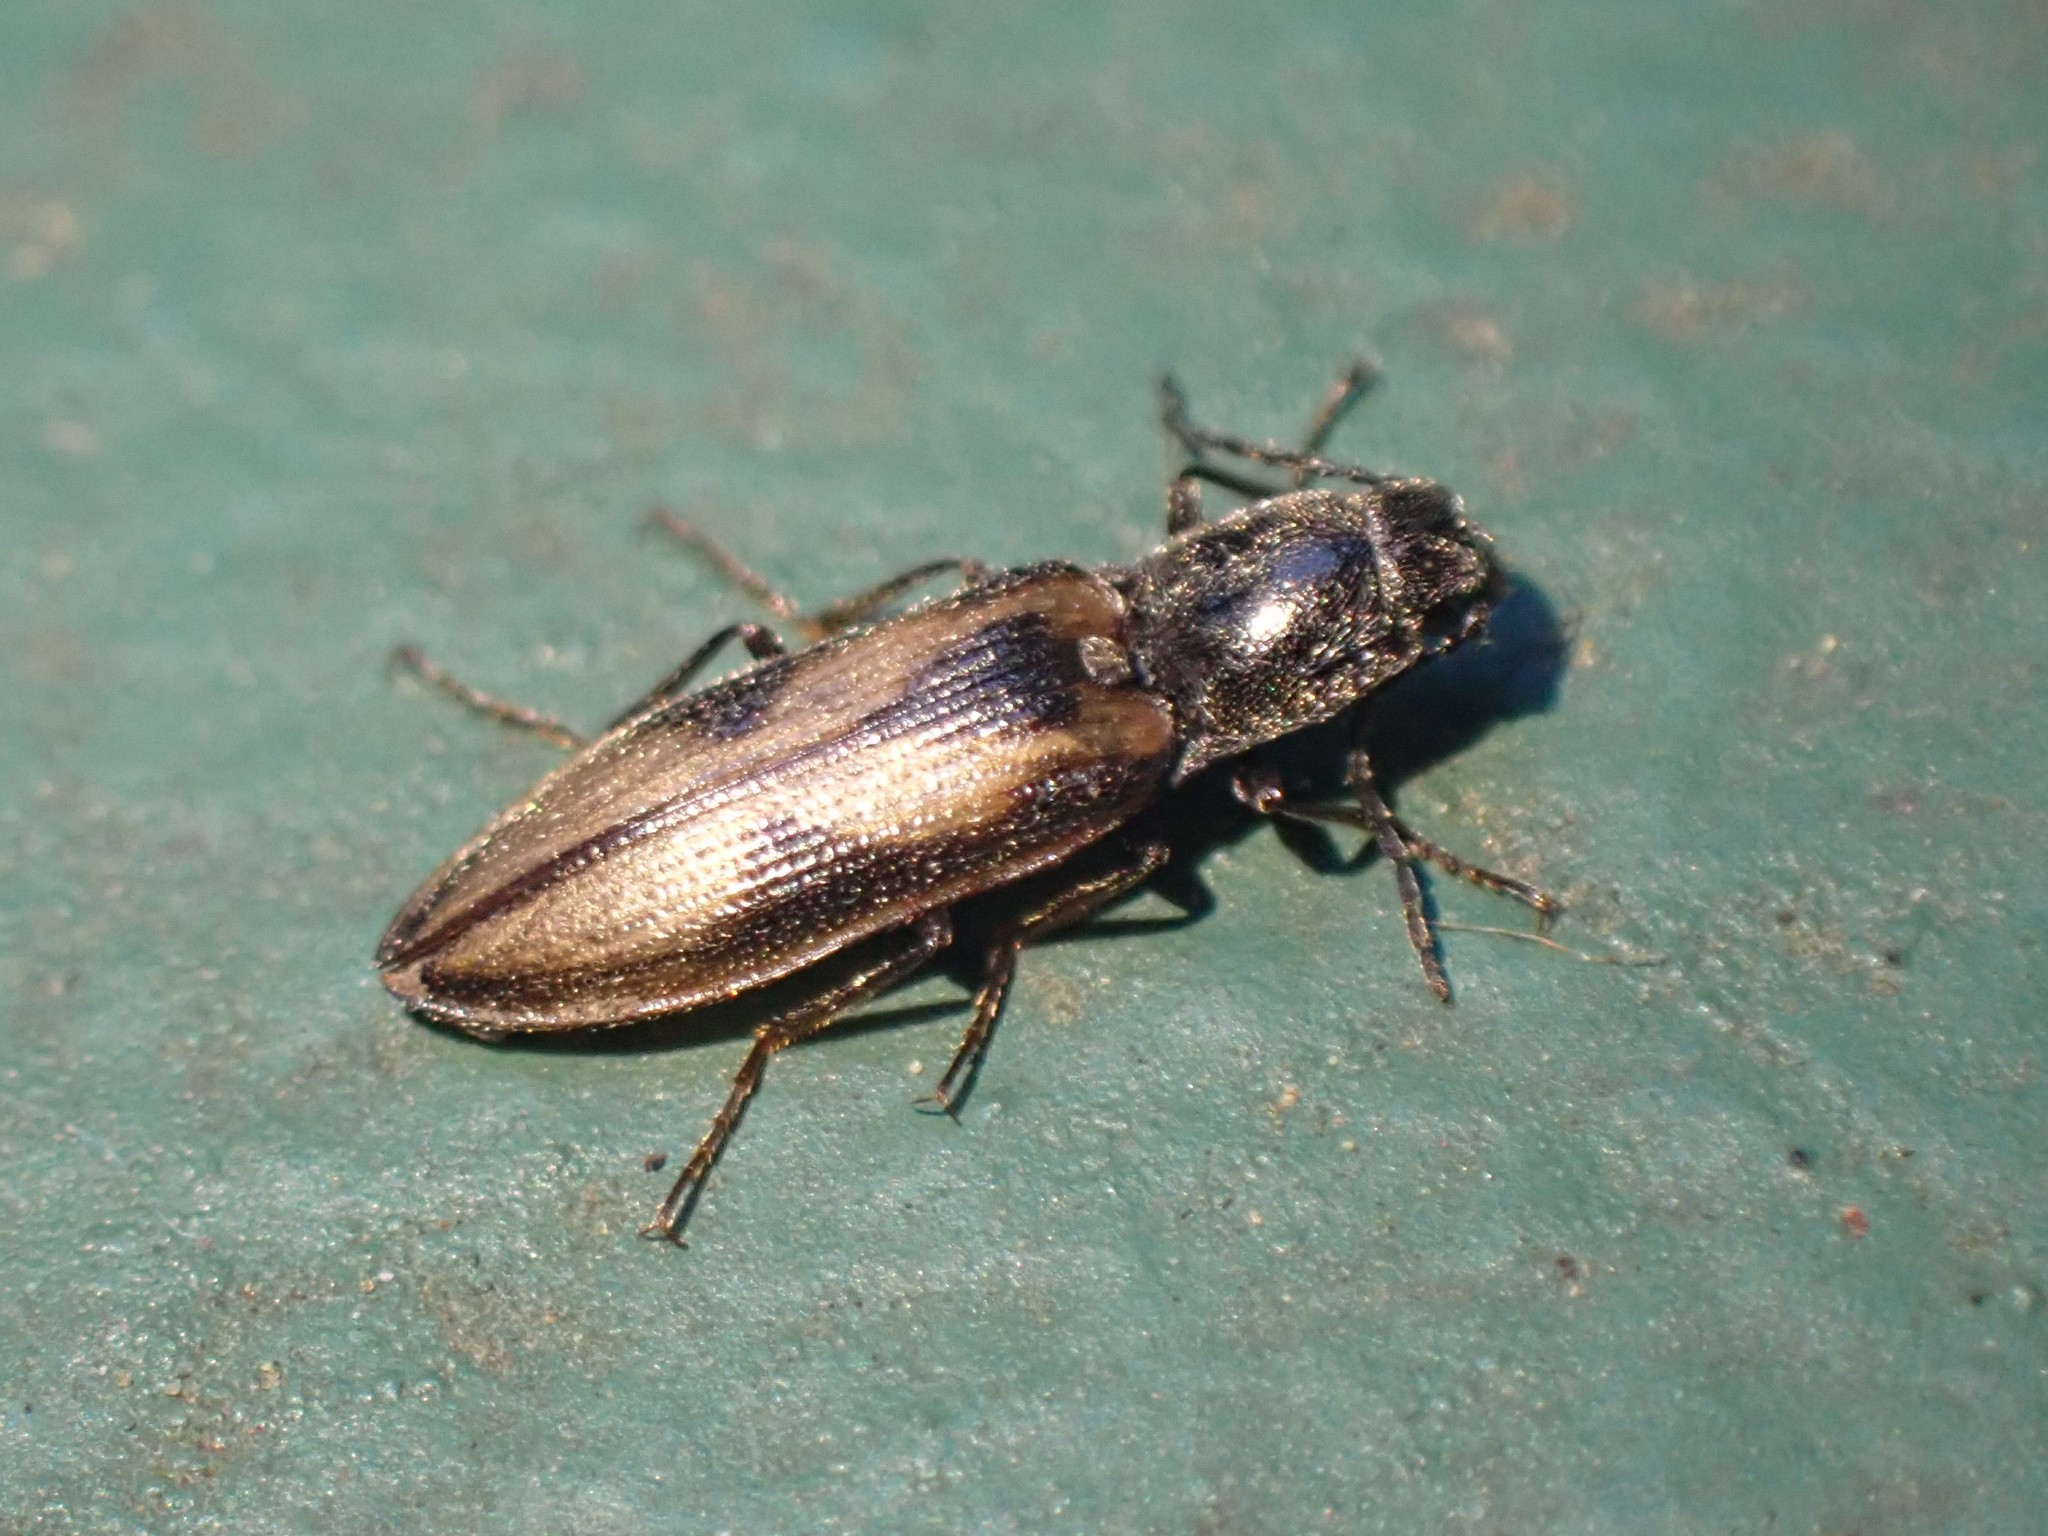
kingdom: Animalia
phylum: Arthropoda
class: Insecta
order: Coleoptera
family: Elateridae
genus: Liotrichus
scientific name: Liotrichus umbripennis
